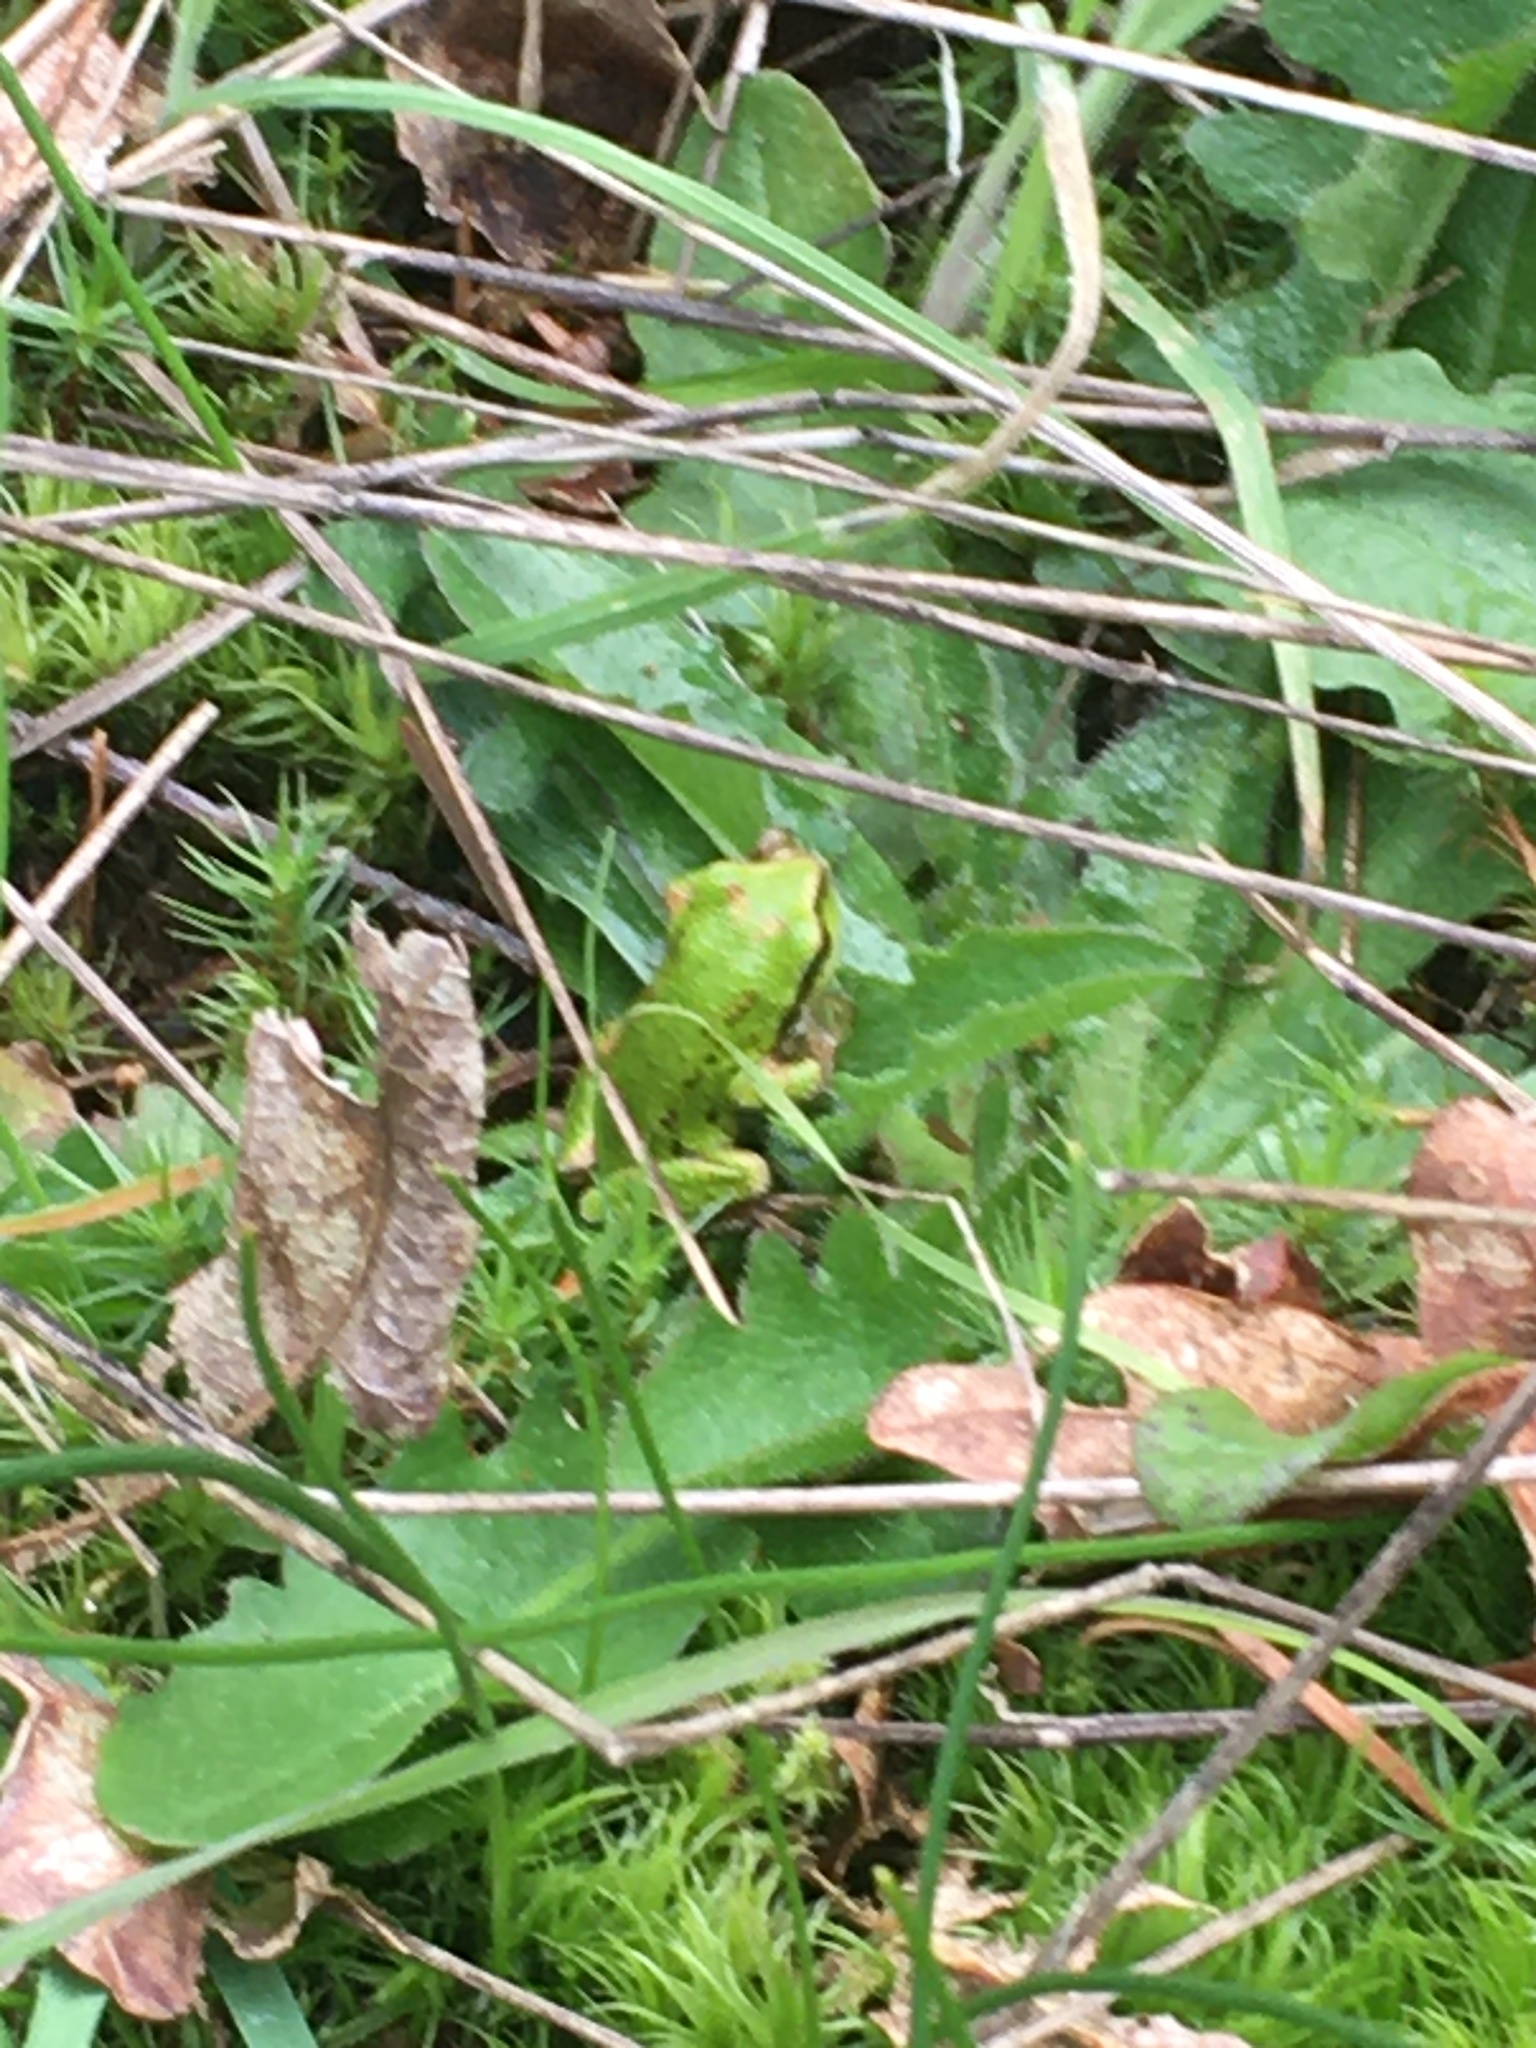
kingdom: Animalia
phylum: Chordata
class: Amphibia
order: Anura
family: Hylidae
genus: Pseudacris
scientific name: Pseudacris regilla
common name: Pacific chorus frog
